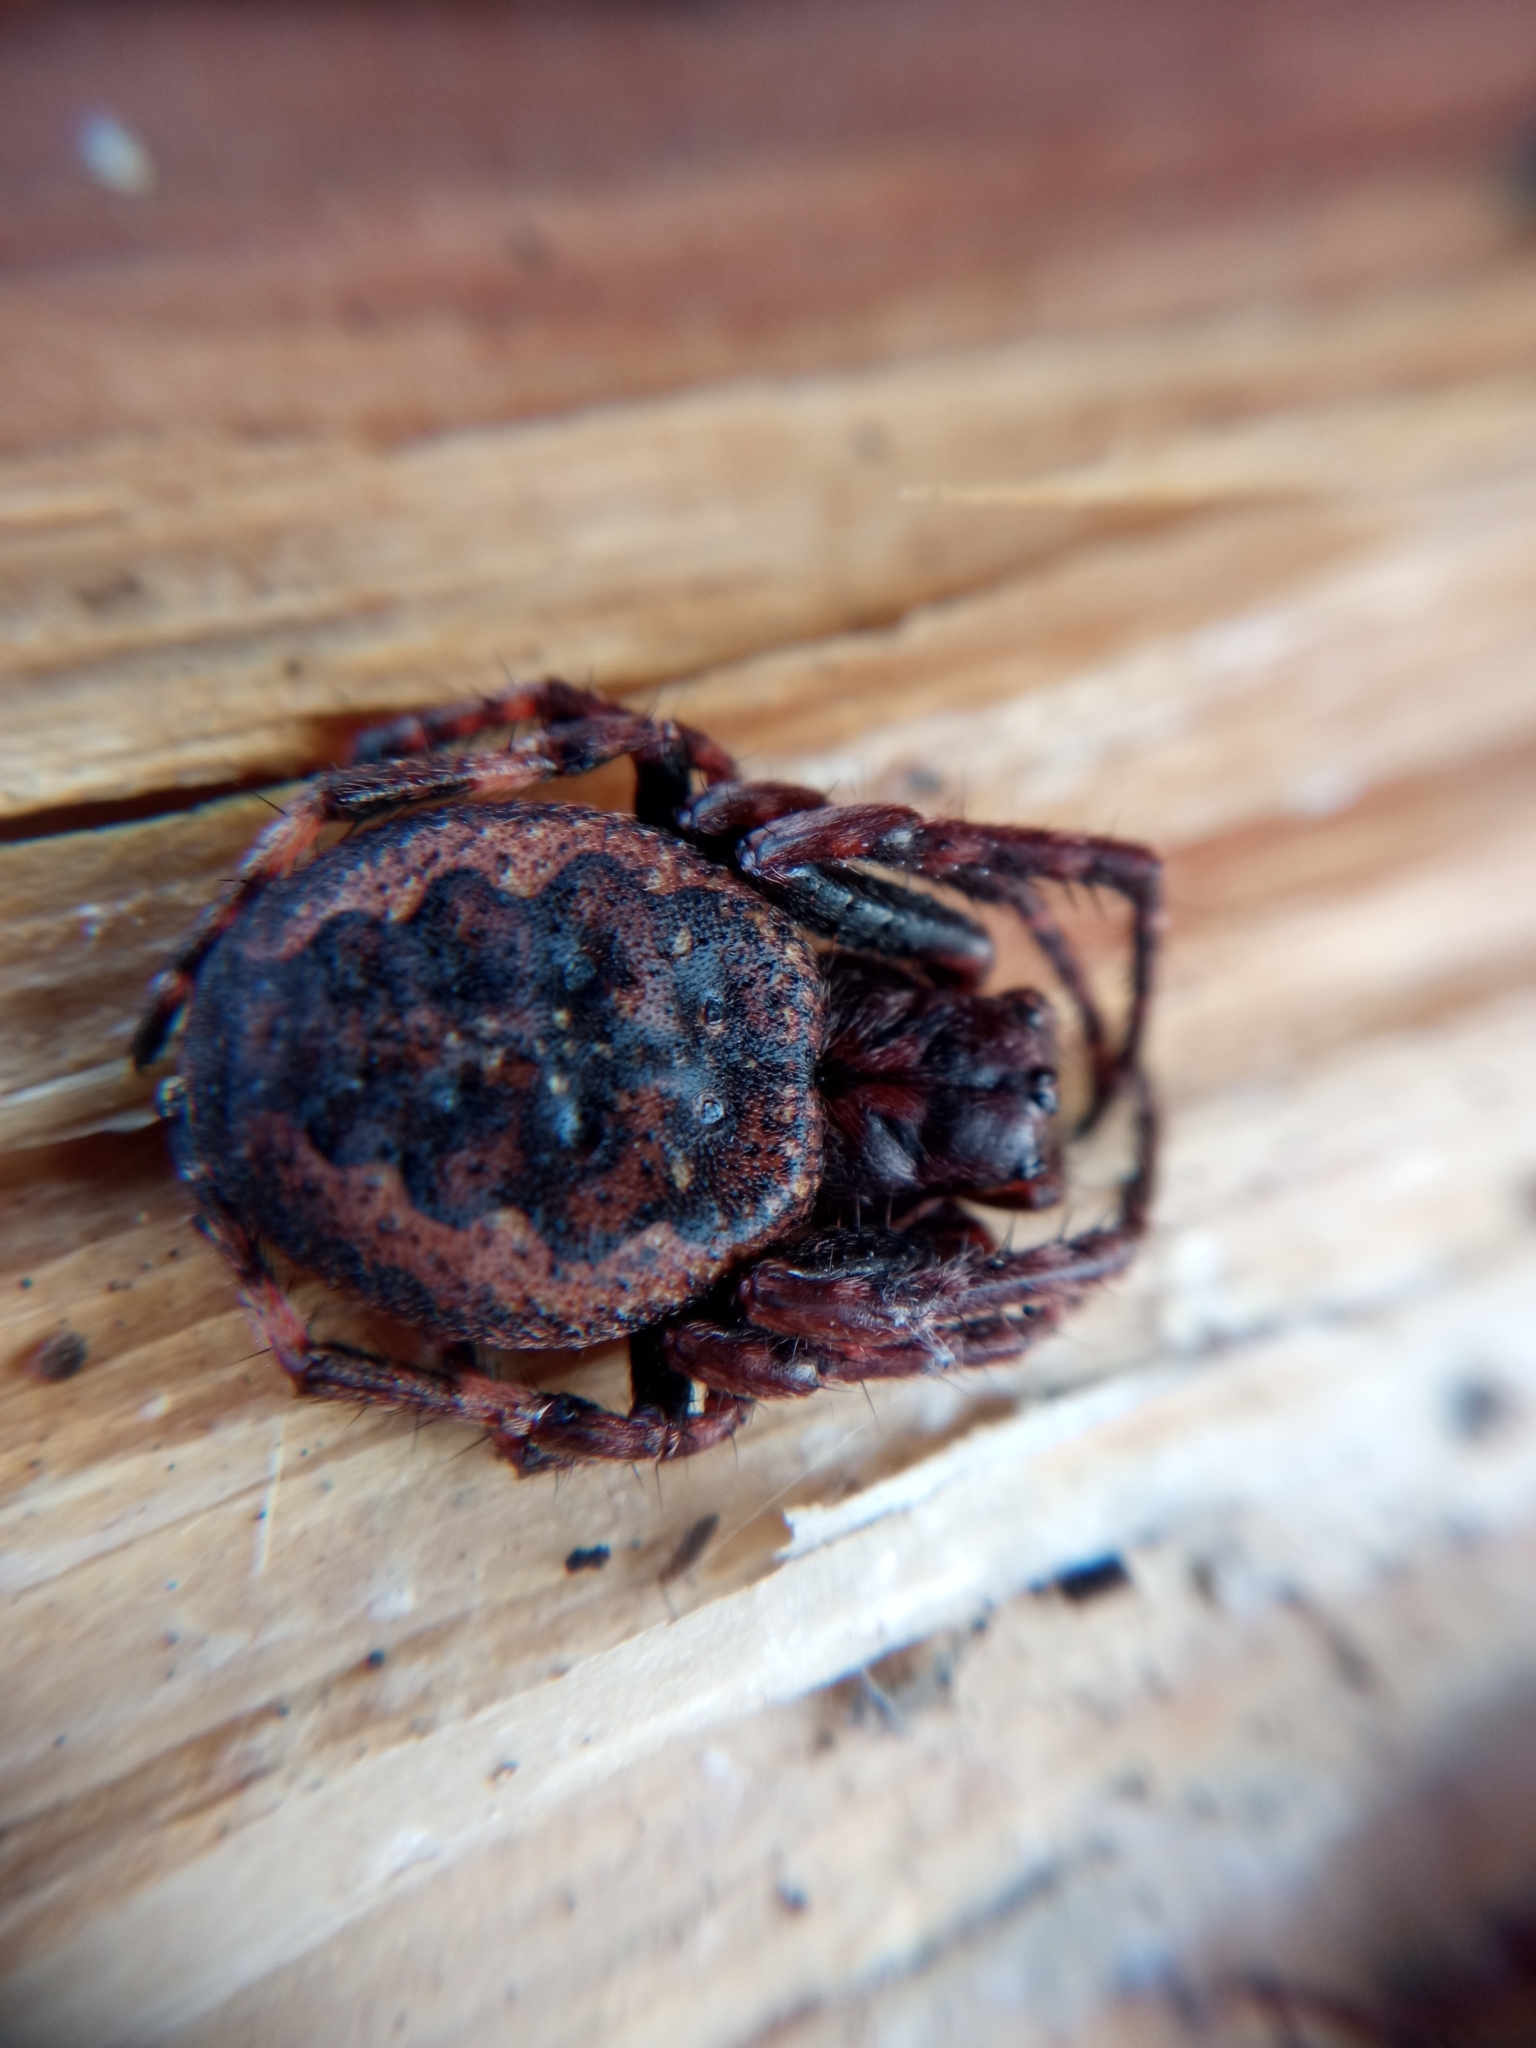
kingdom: Animalia
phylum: Arthropoda
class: Arachnida
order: Araneae
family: Araneidae
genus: Nuctenea
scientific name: Nuctenea umbratica
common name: Toad spider
